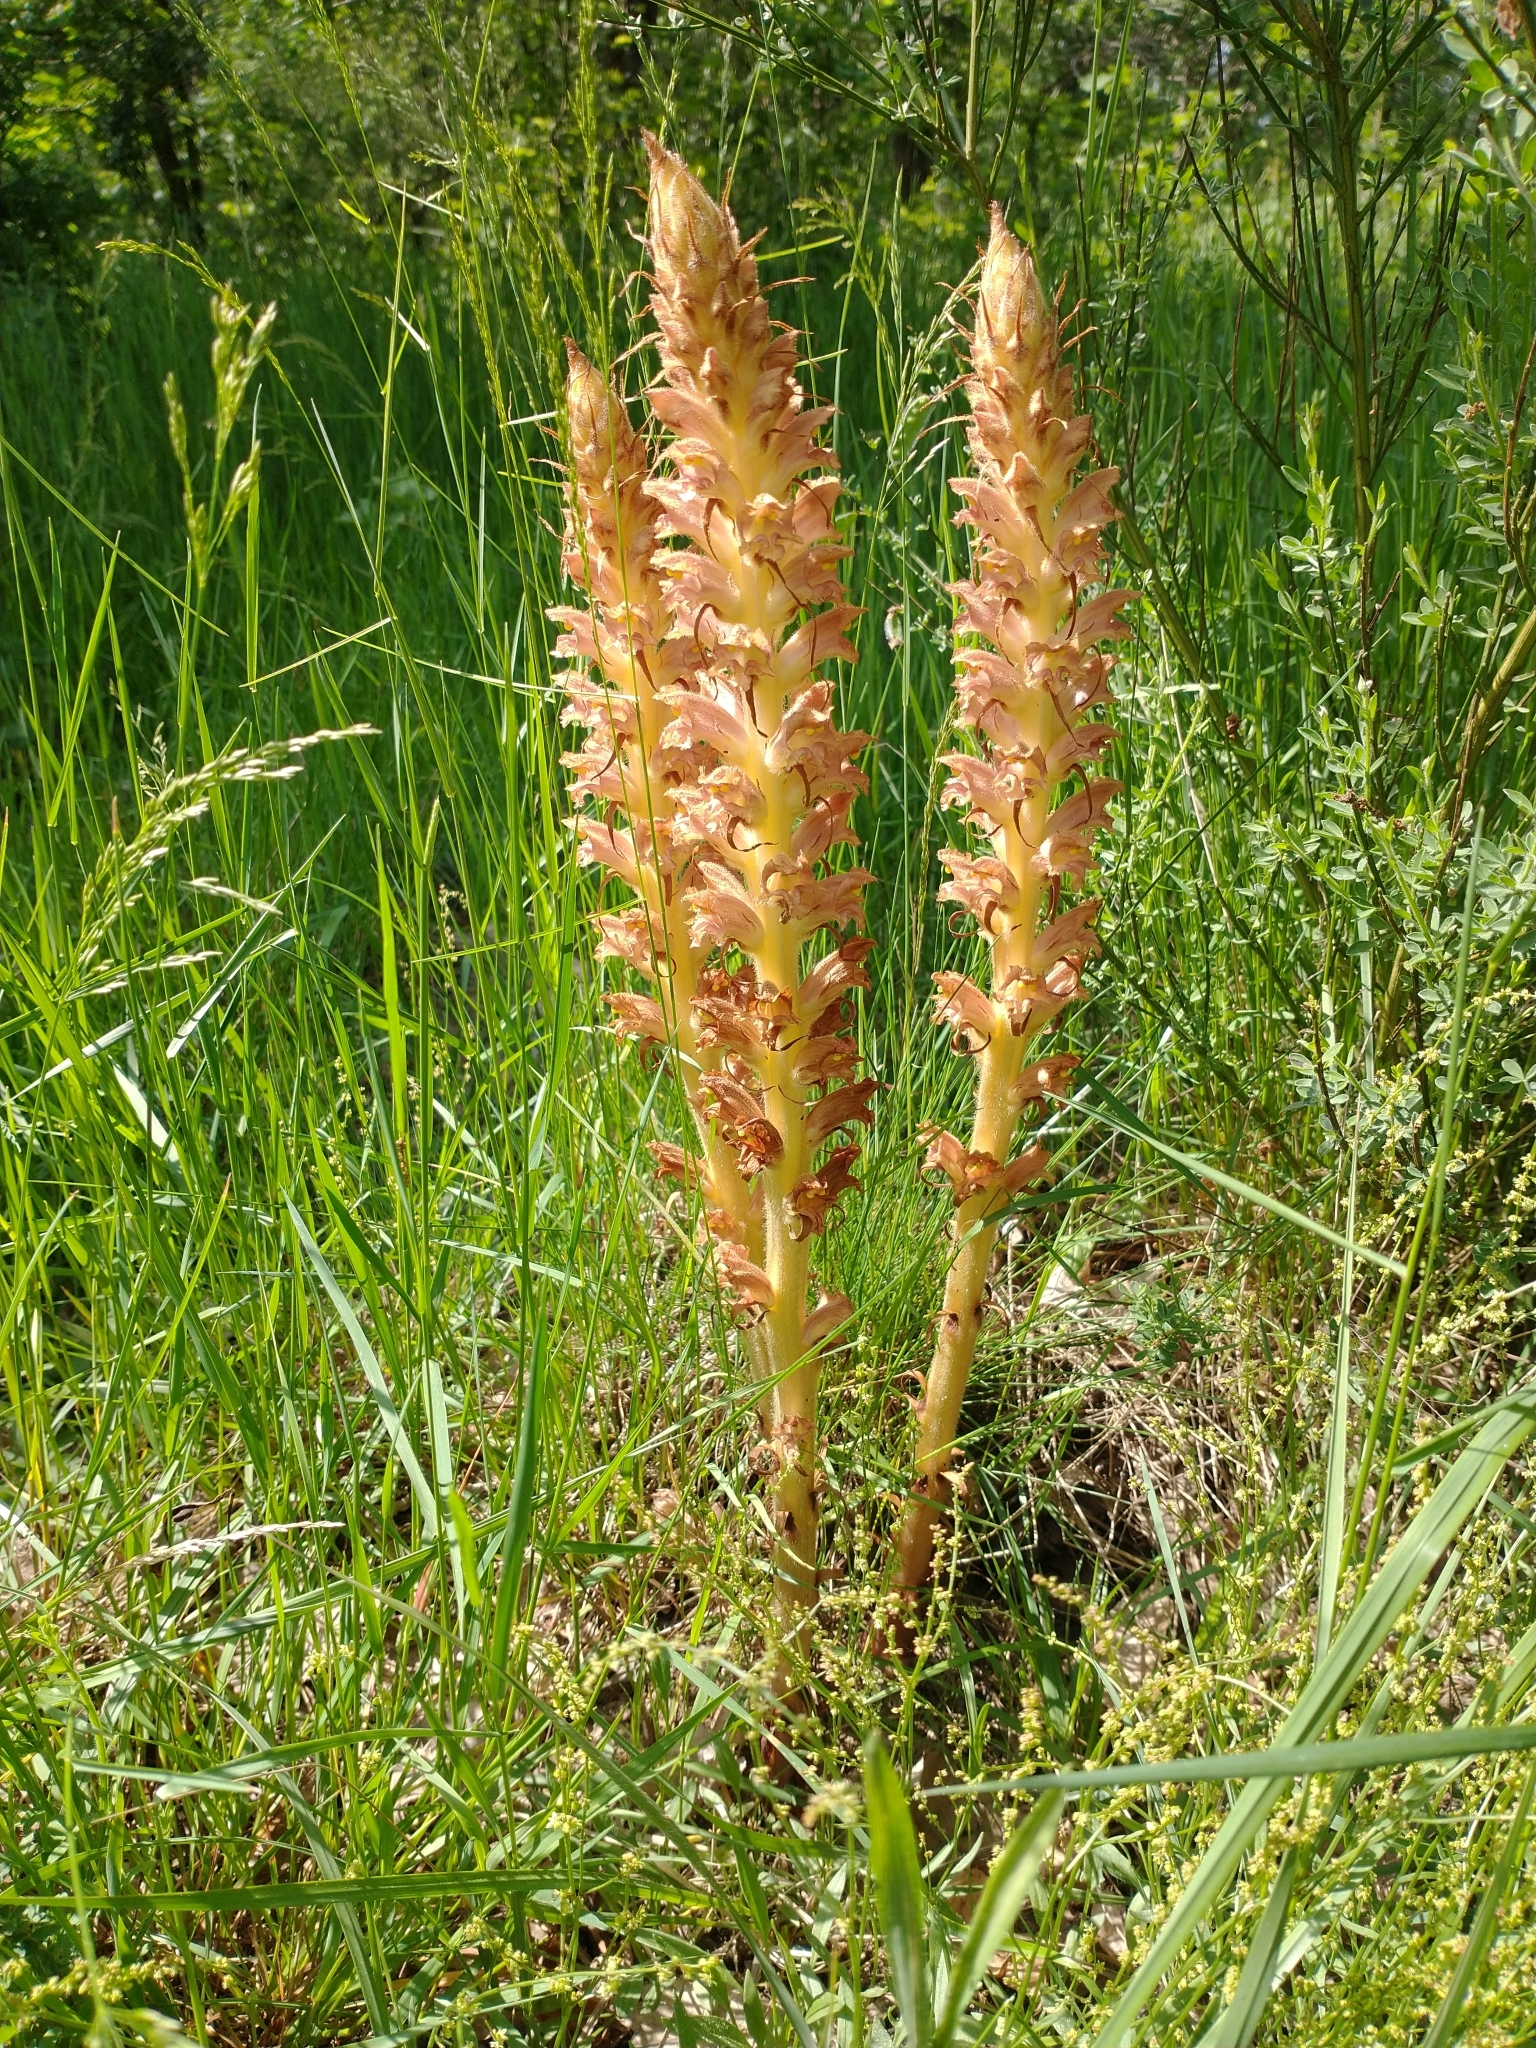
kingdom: Plantae
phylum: Tracheophyta
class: Magnoliopsida
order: Lamiales
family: Orobanchaceae
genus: Orobanche
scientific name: Orobanche rapum-genistae
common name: Greater broomrape
